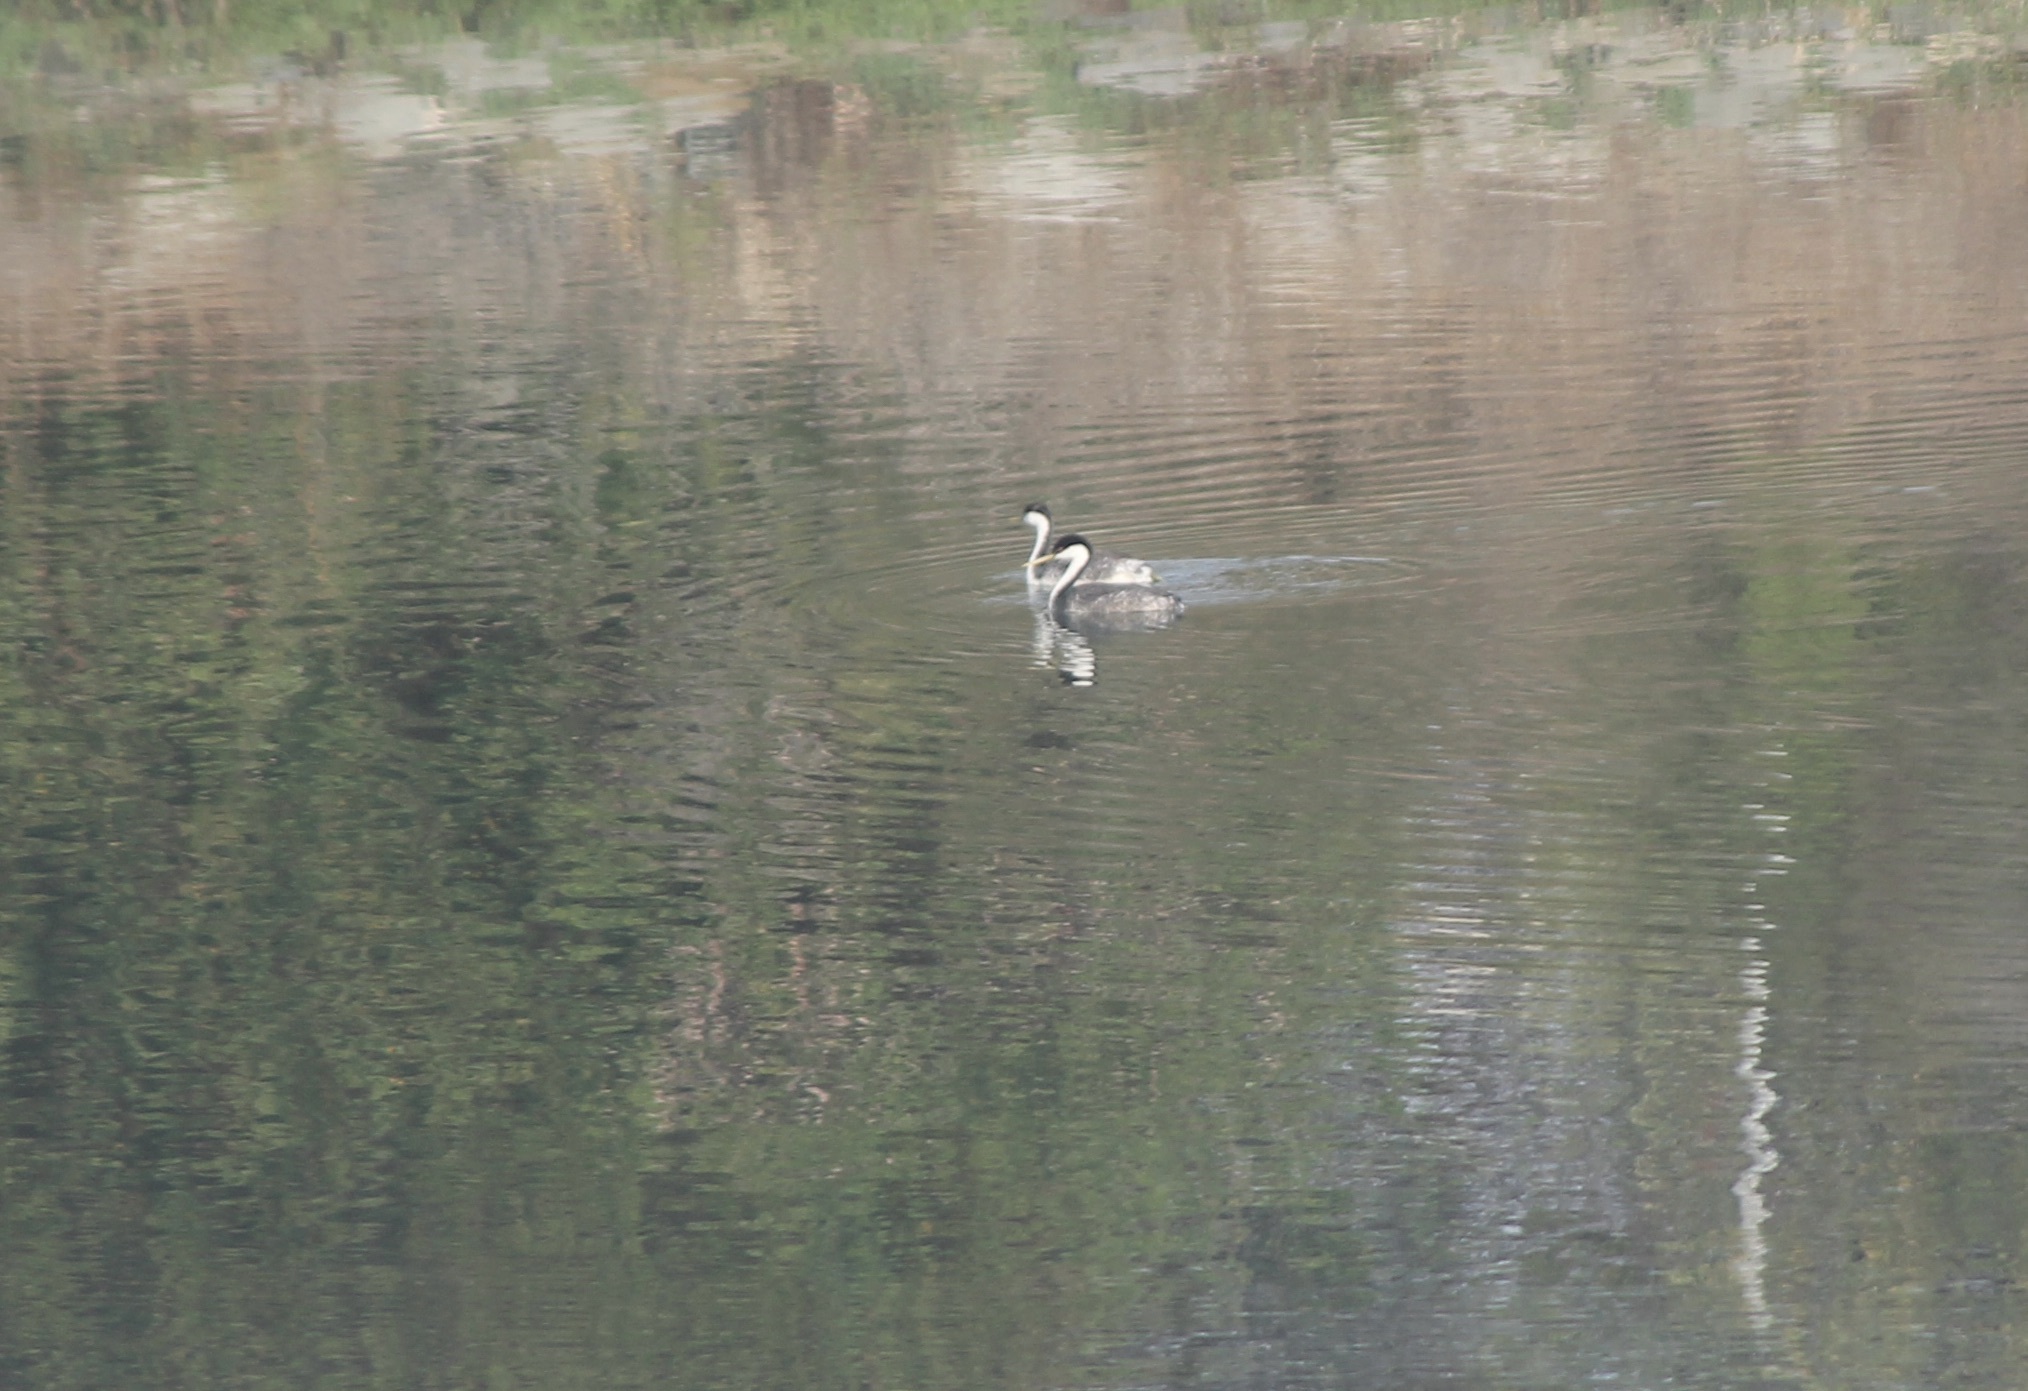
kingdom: Animalia
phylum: Chordata
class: Aves
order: Podicipediformes
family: Podicipedidae
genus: Aechmophorus
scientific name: Aechmophorus occidentalis
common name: Western grebe
